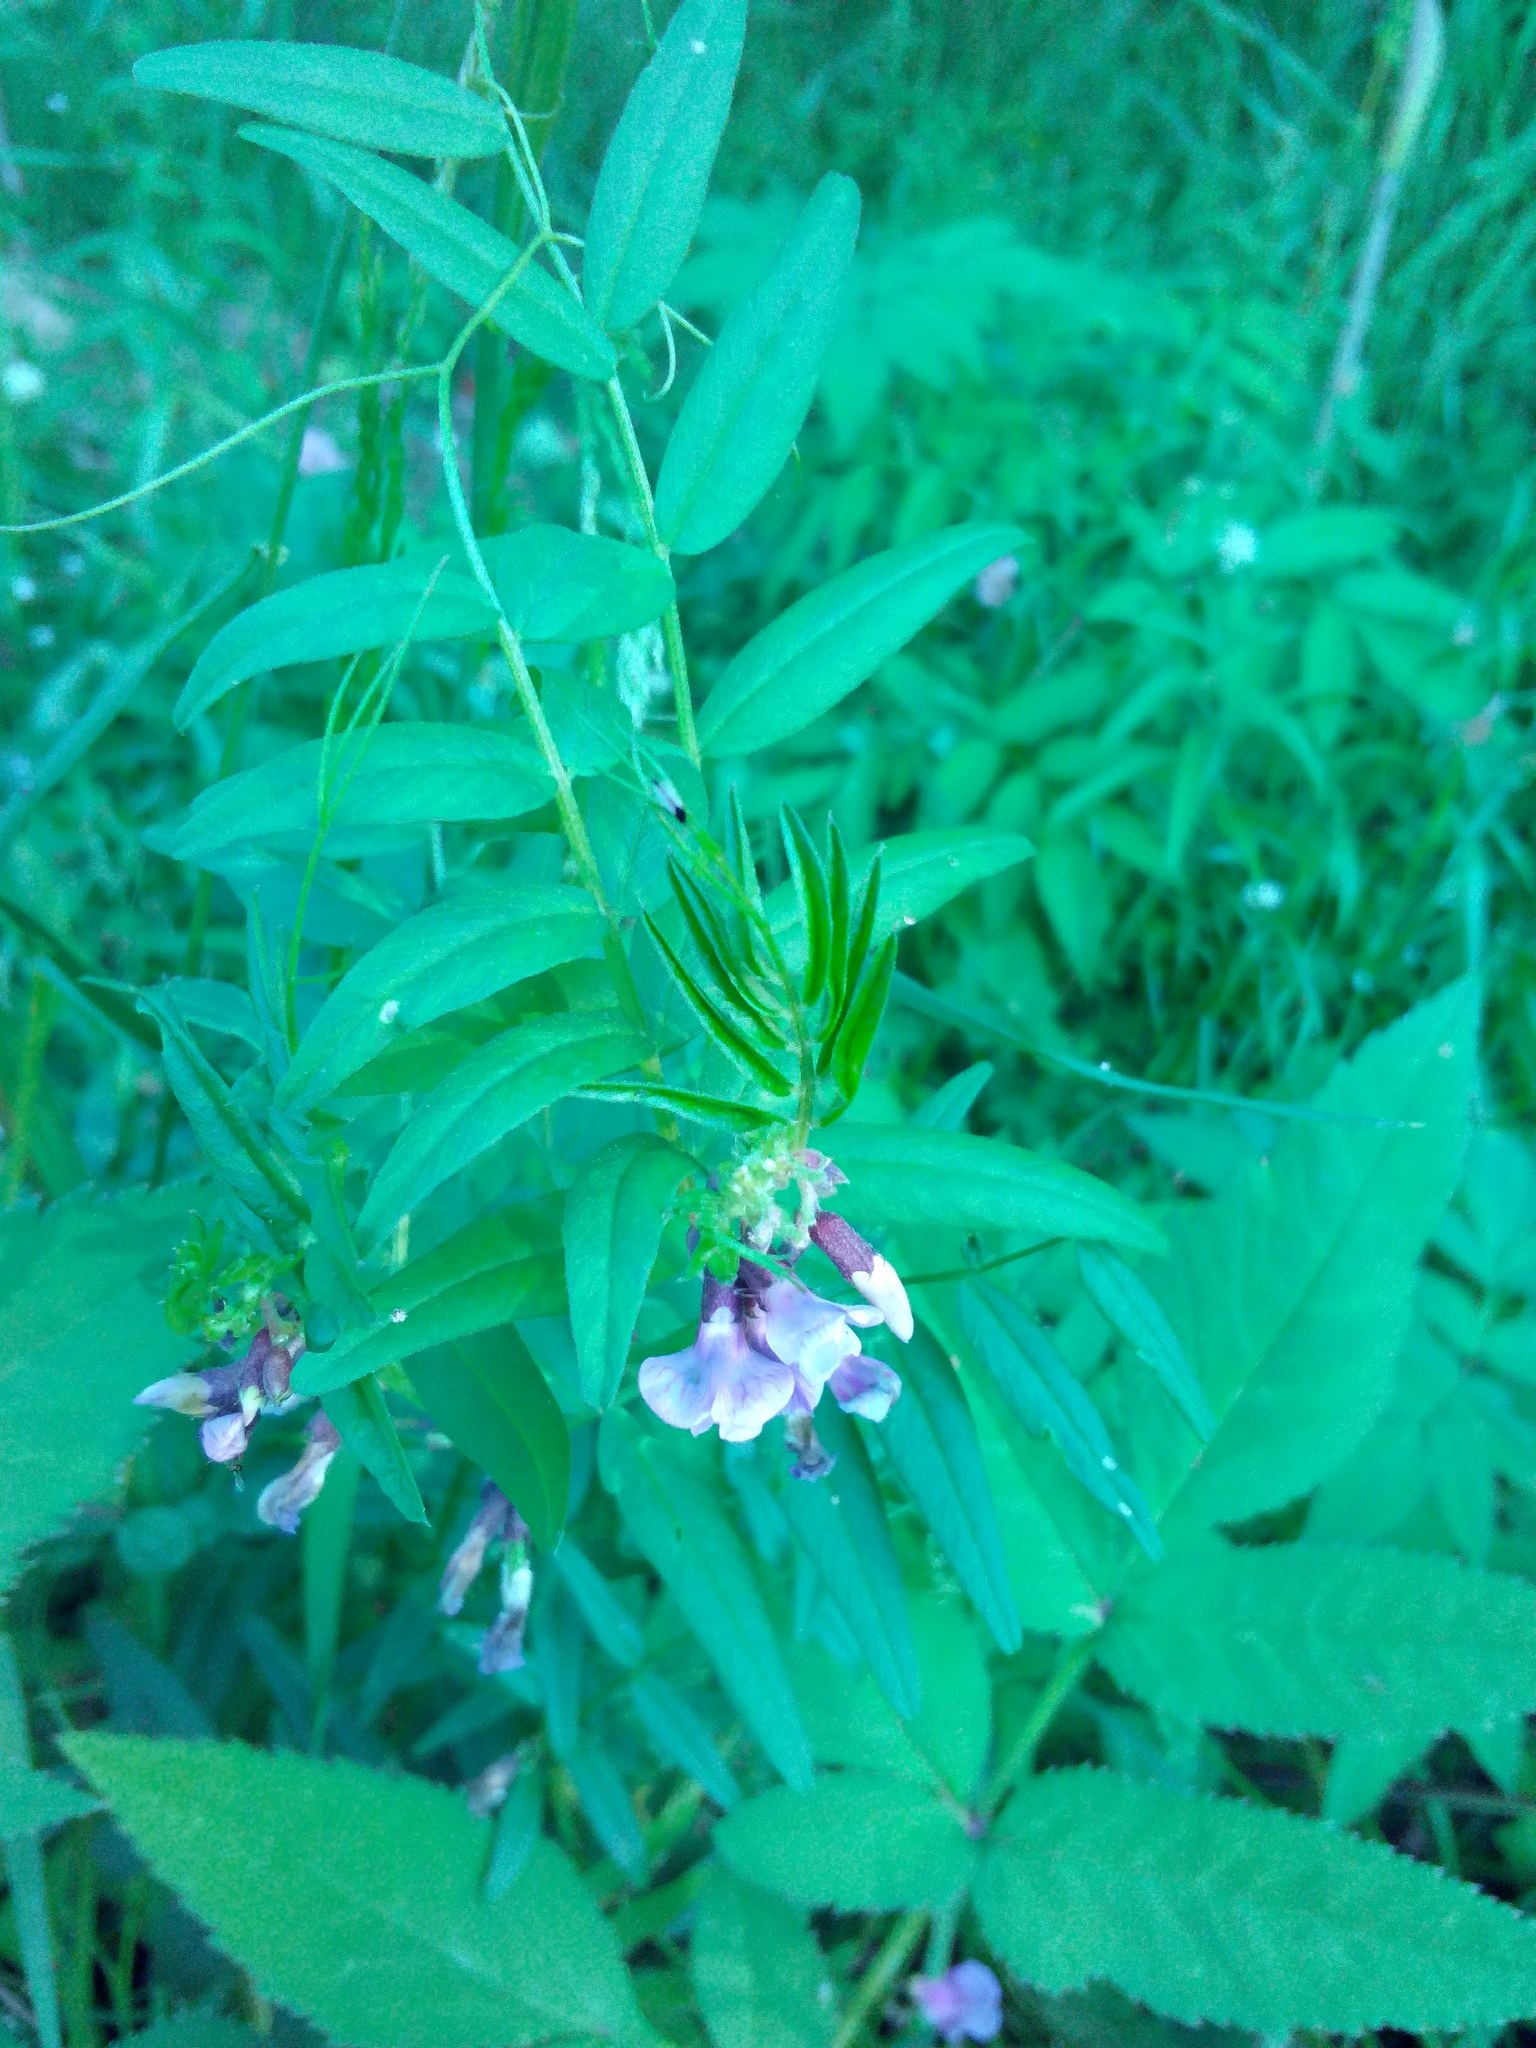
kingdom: Plantae
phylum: Tracheophyta
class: Magnoliopsida
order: Fabales
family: Fabaceae
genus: Vicia
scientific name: Vicia sepium
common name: Bush vetch
